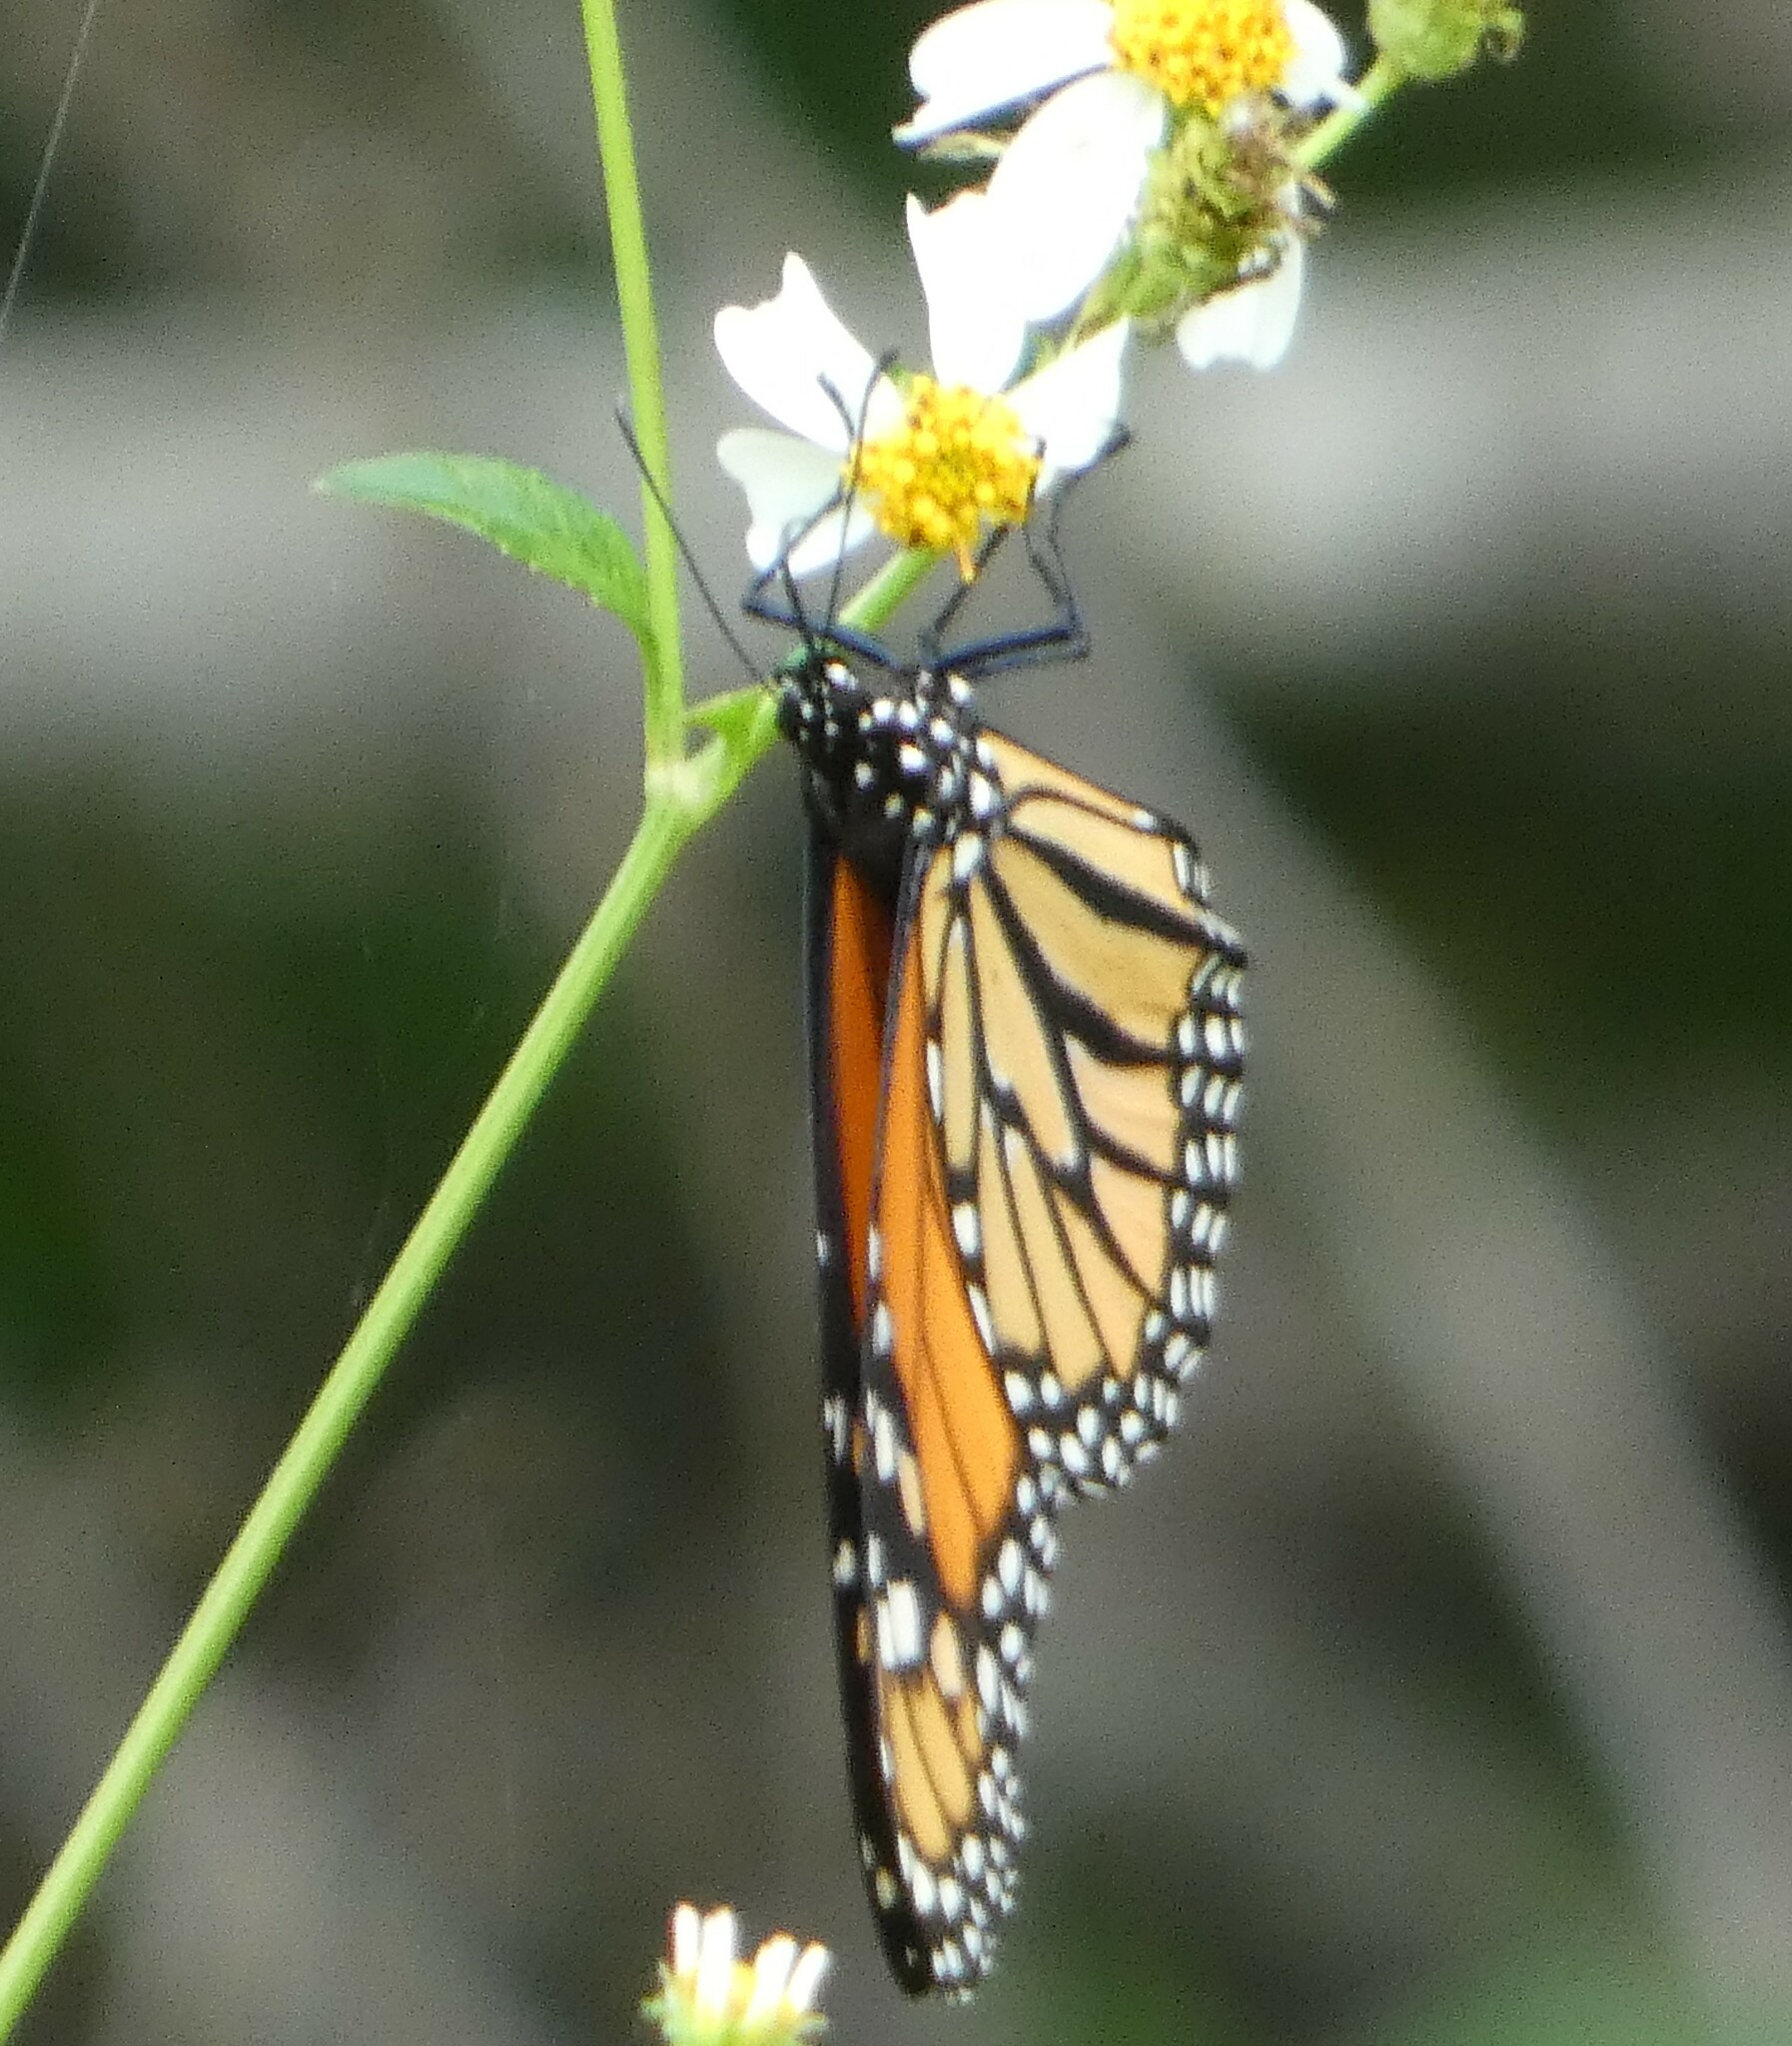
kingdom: Animalia
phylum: Arthropoda
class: Insecta
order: Lepidoptera
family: Nymphalidae
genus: Danaus
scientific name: Danaus plexippus
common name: Monarch
